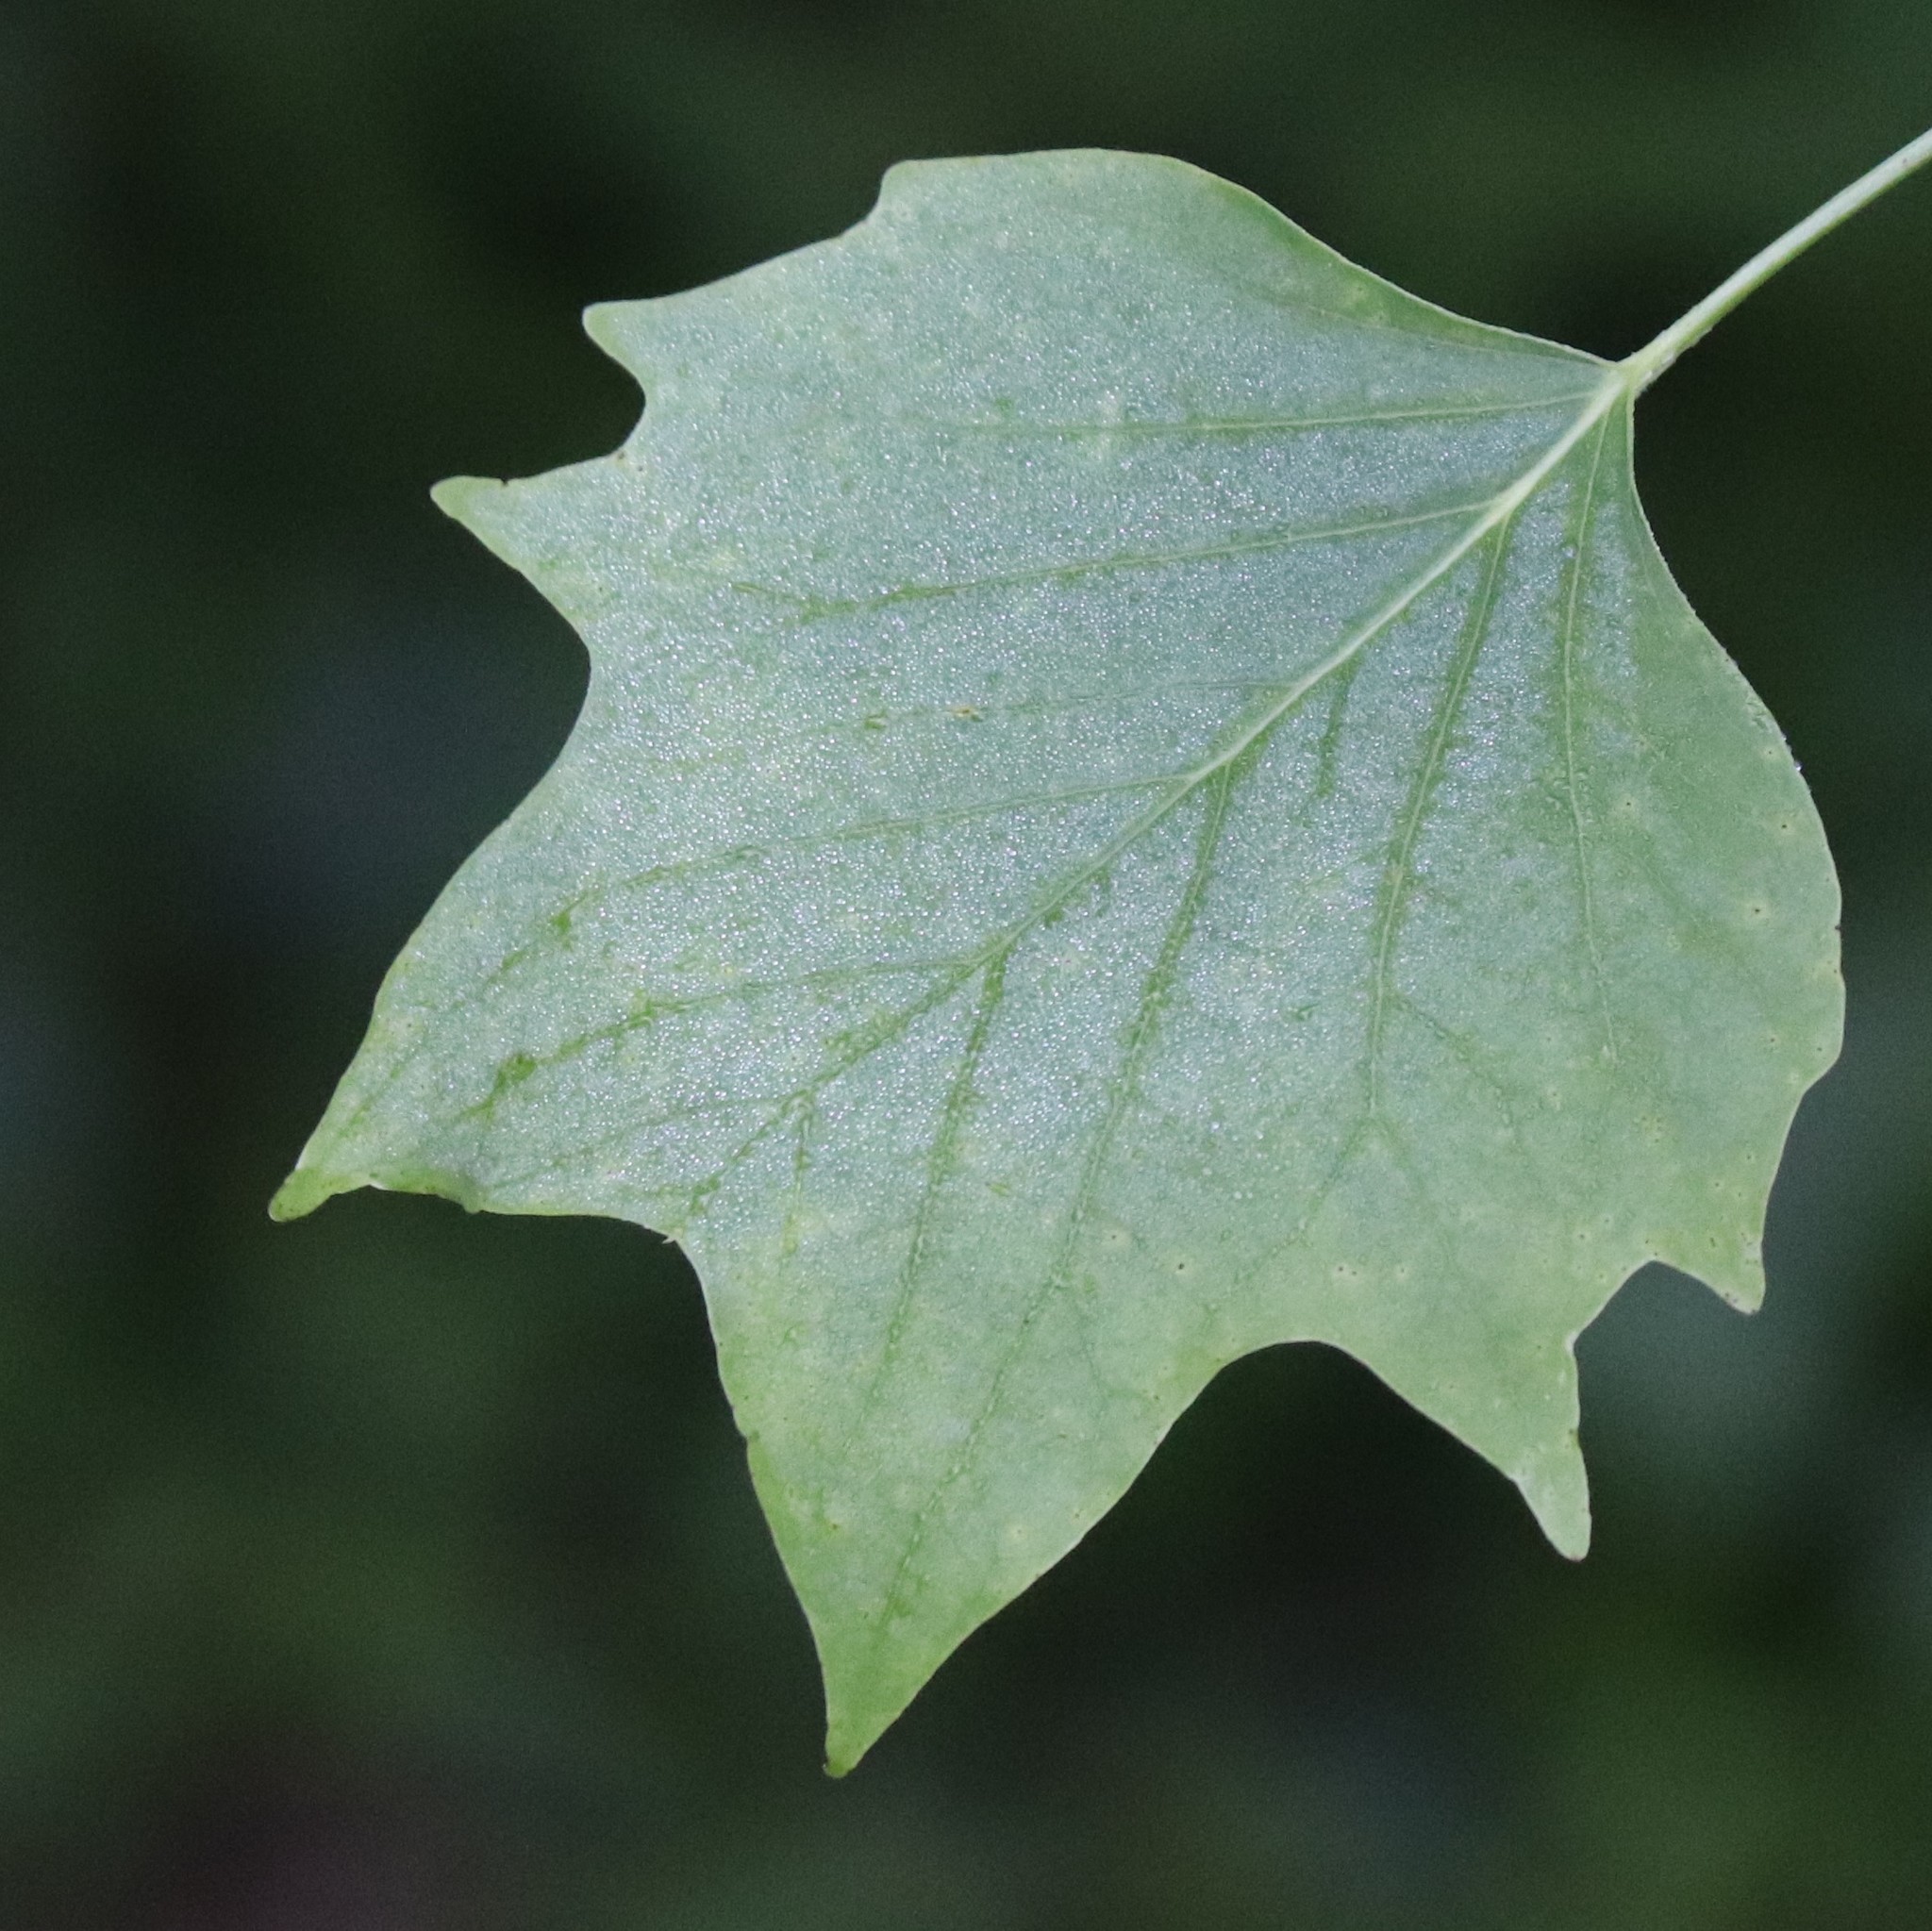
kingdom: Plantae
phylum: Tracheophyta
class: Magnoliopsida
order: Magnoliales
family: Magnoliaceae
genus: Liriodendron
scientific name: Liriodendron tulipifera
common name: Tulip tree
